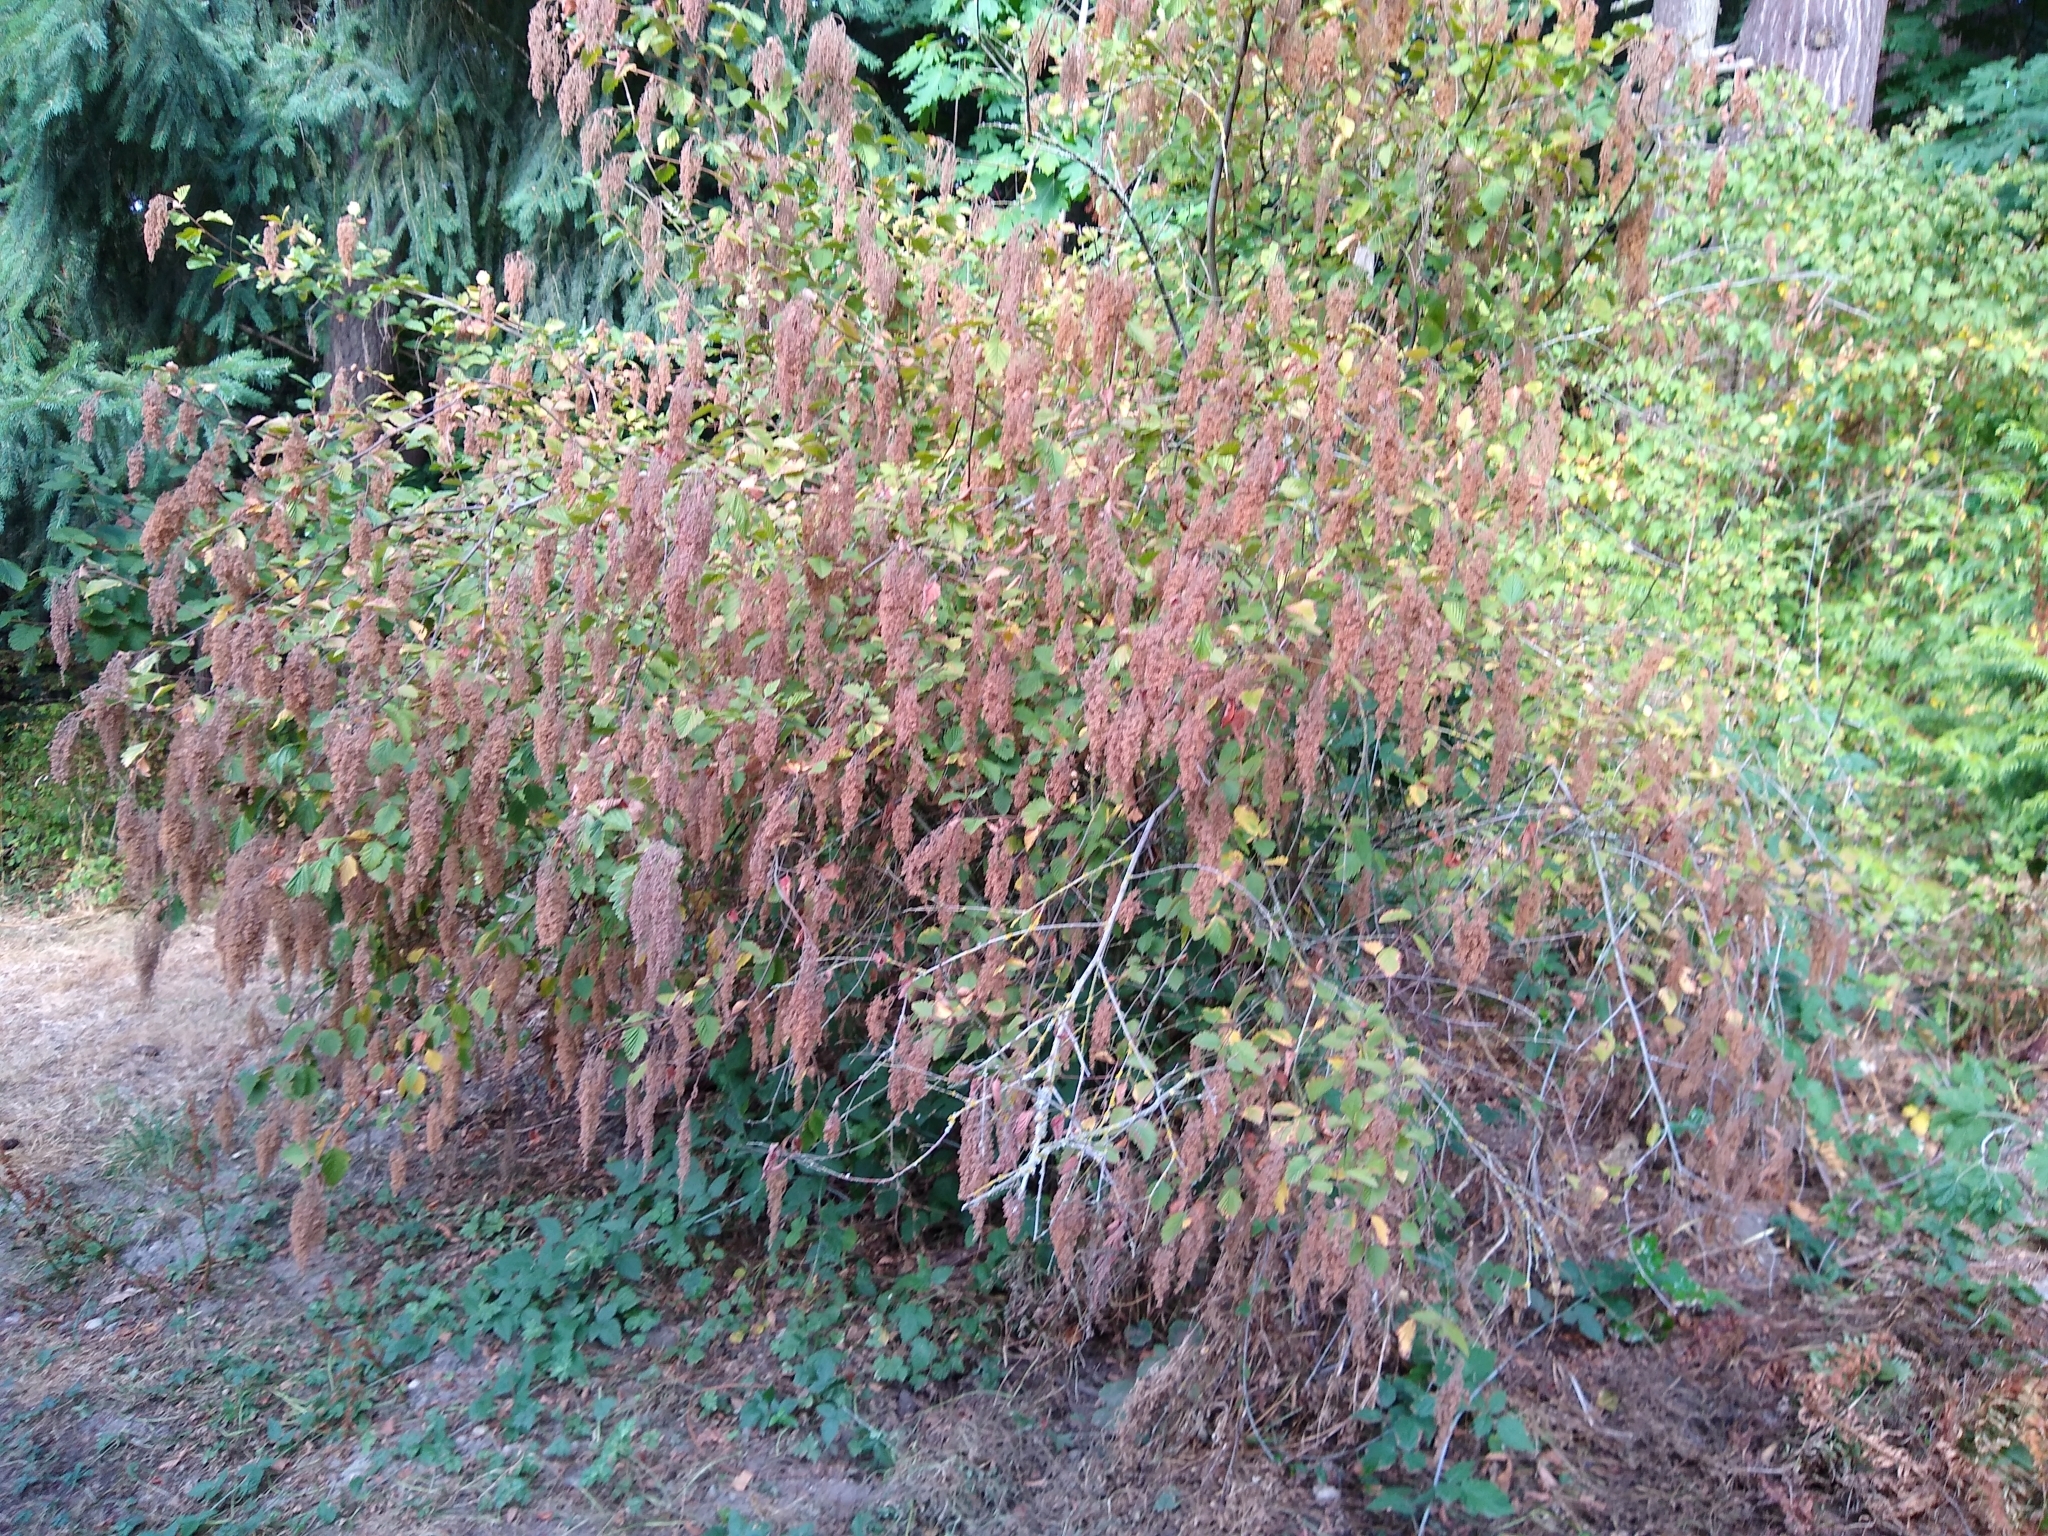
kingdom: Plantae
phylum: Tracheophyta
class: Magnoliopsida
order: Rosales
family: Rosaceae
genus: Holodiscus
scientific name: Holodiscus discolor
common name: Oceanspray
